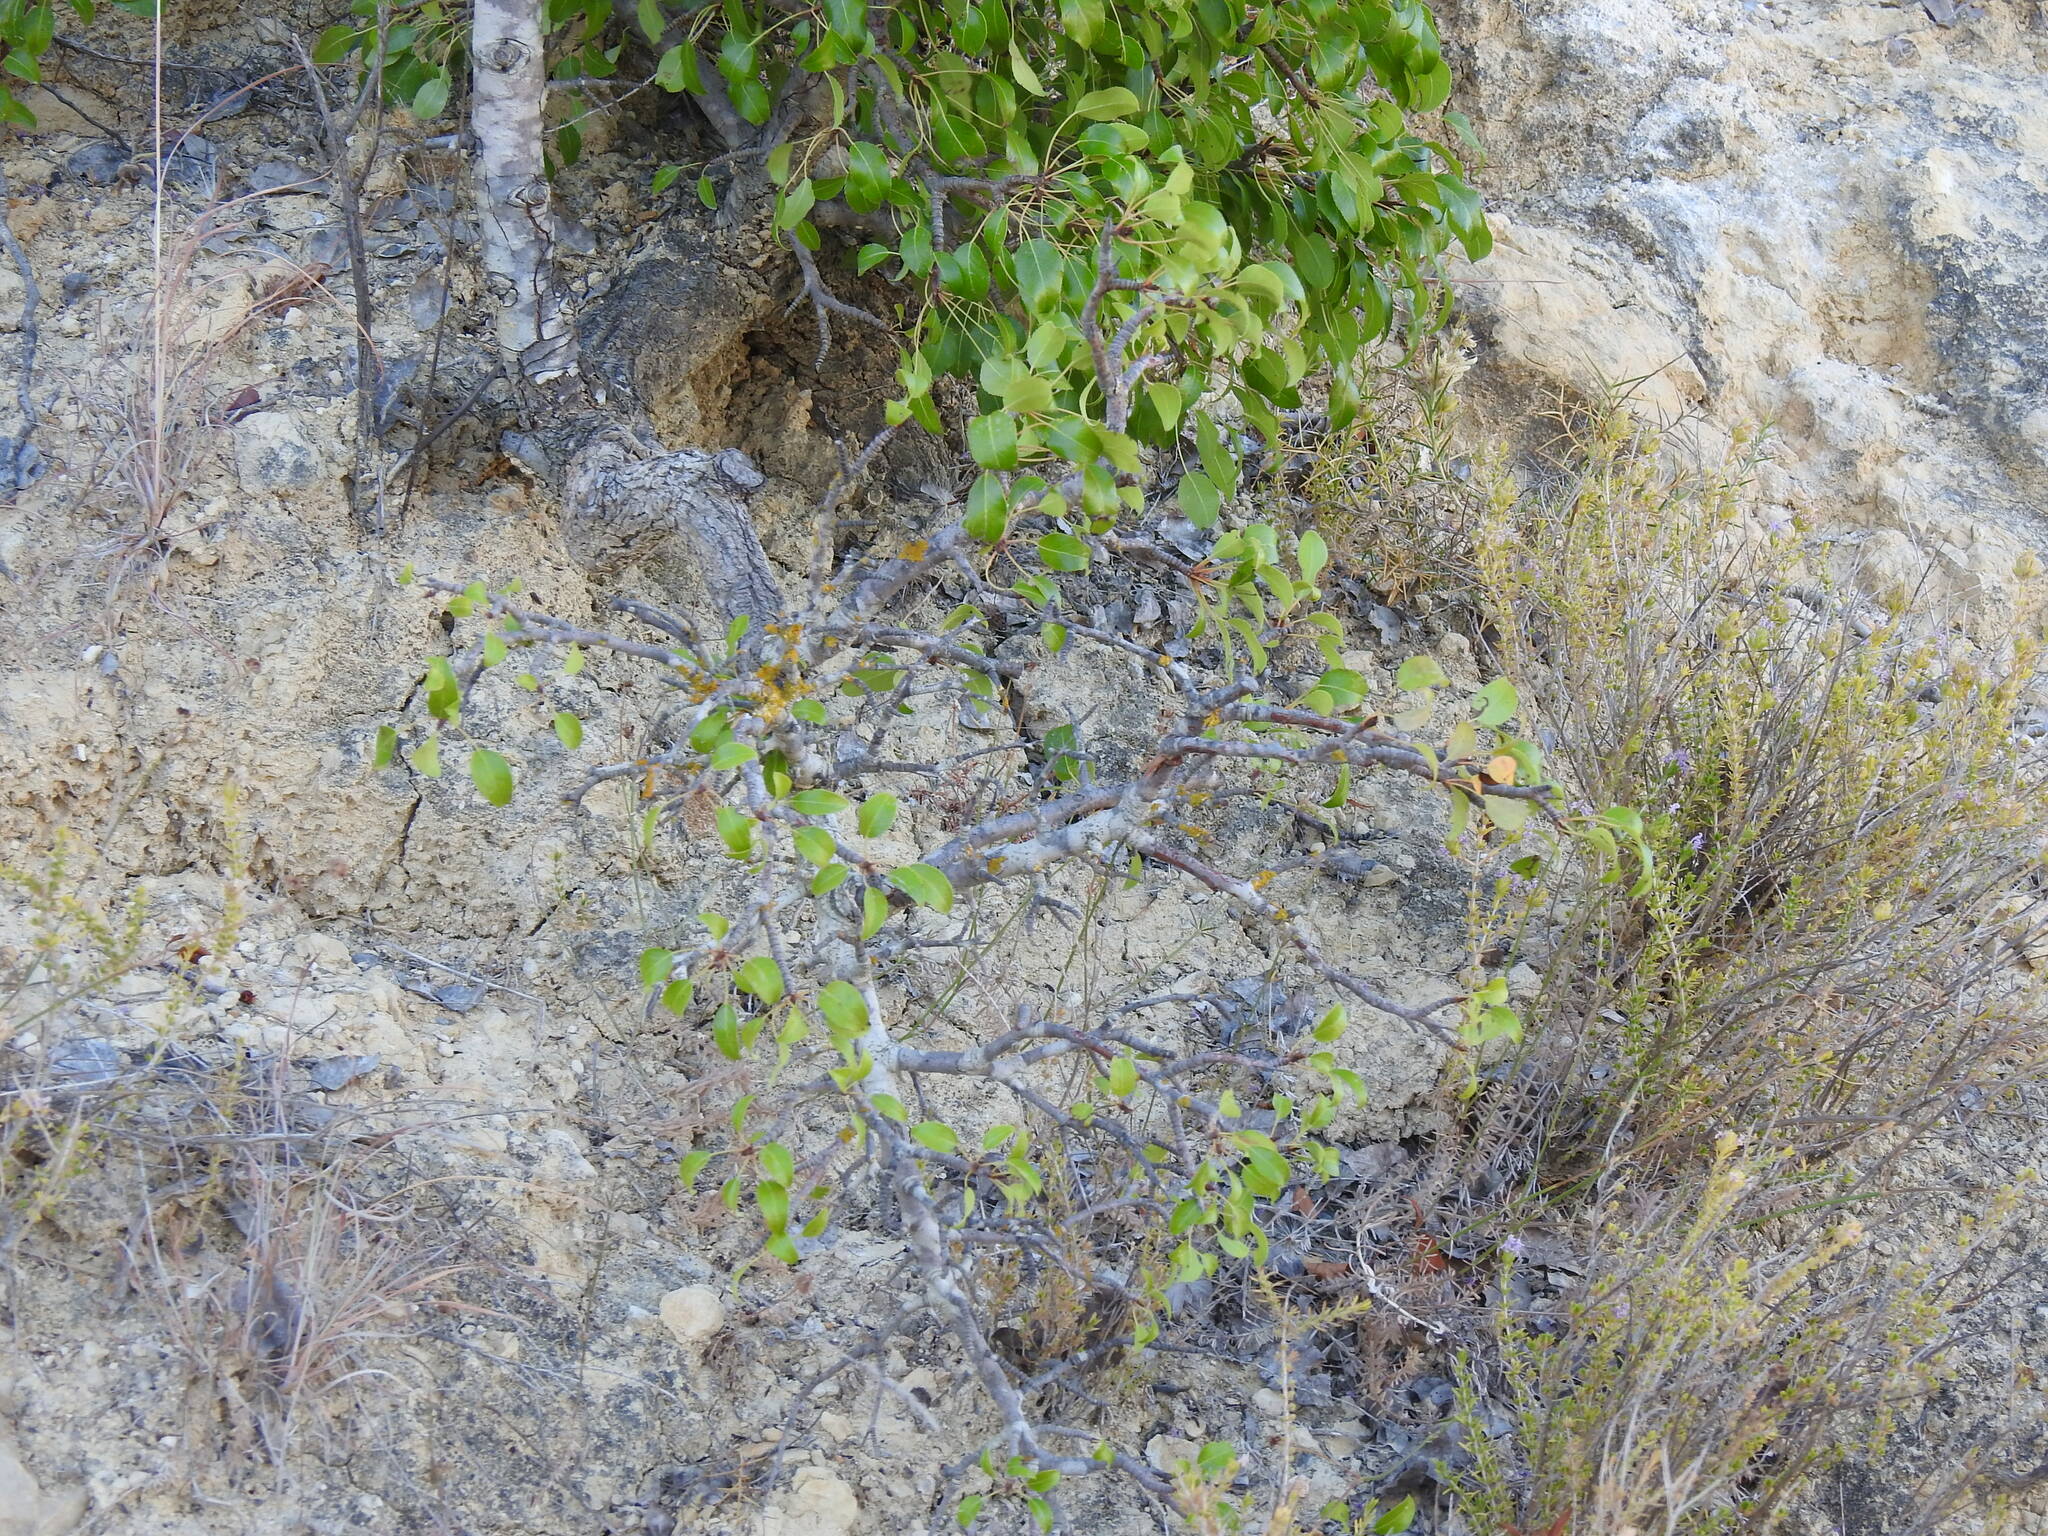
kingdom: Plantae
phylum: Tracheophyta
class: Magnoliopsida
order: Rosales
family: Rosaceae
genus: Pyrus
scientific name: Pyrus bourgaeana
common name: Iberian pear
